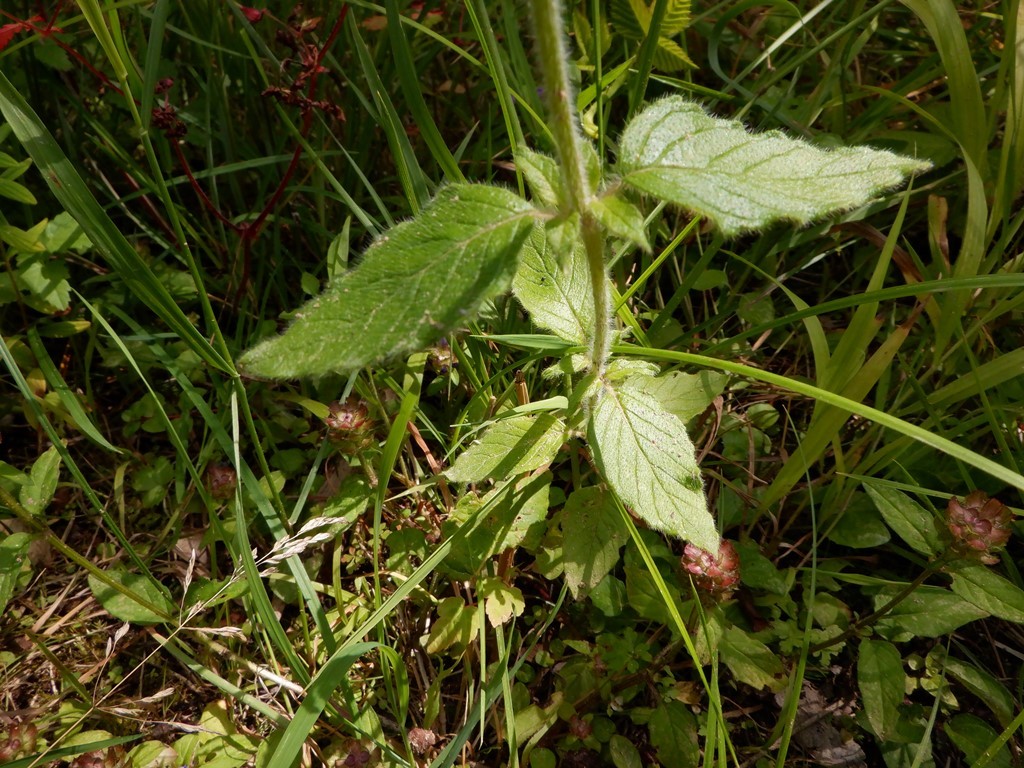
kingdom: Plantae
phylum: Tracheophyta
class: Magnoliopsida
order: Lamiales
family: Lamiaceae
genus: Clinopodium
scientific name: Clinopodium vulgare
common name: Wild basil
